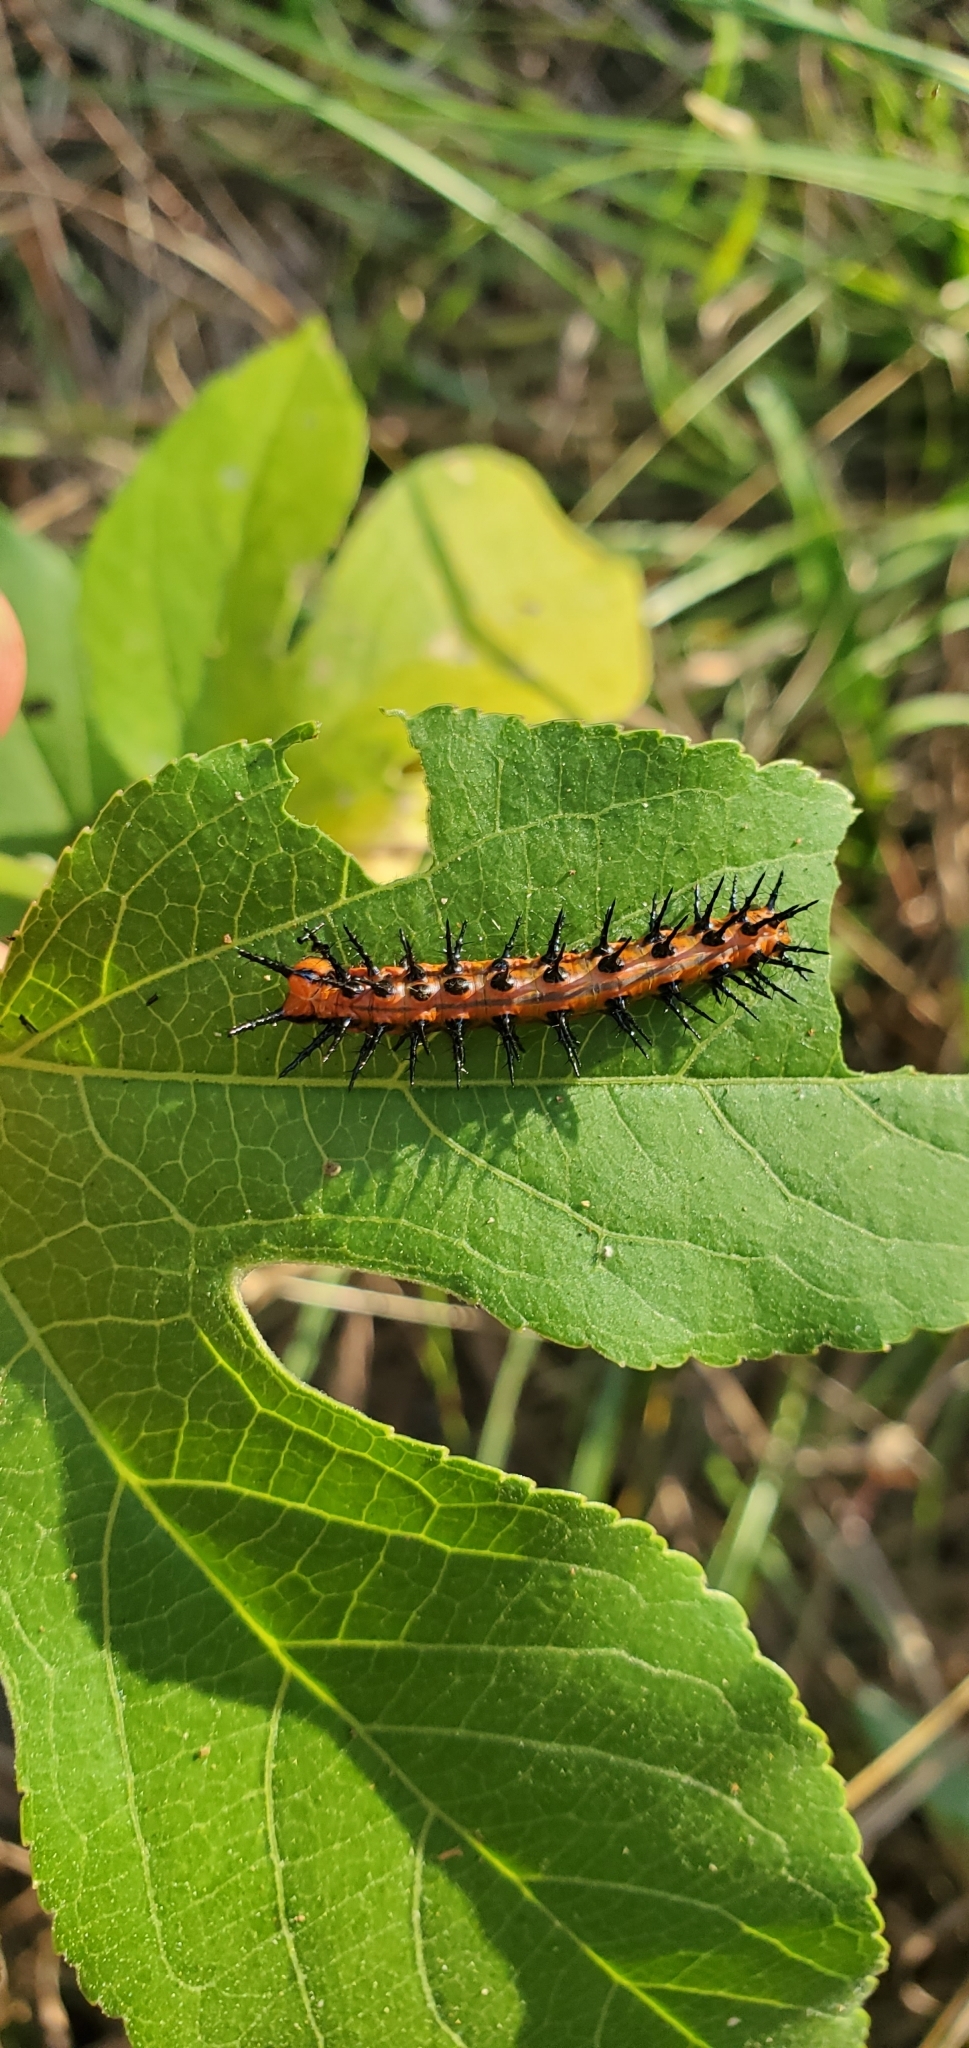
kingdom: Animalia
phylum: Arthropoda
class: Insecta
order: Lepidoptera
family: Nymphalidae
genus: Dione
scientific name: Dione vanillae
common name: Gulf fritillary
